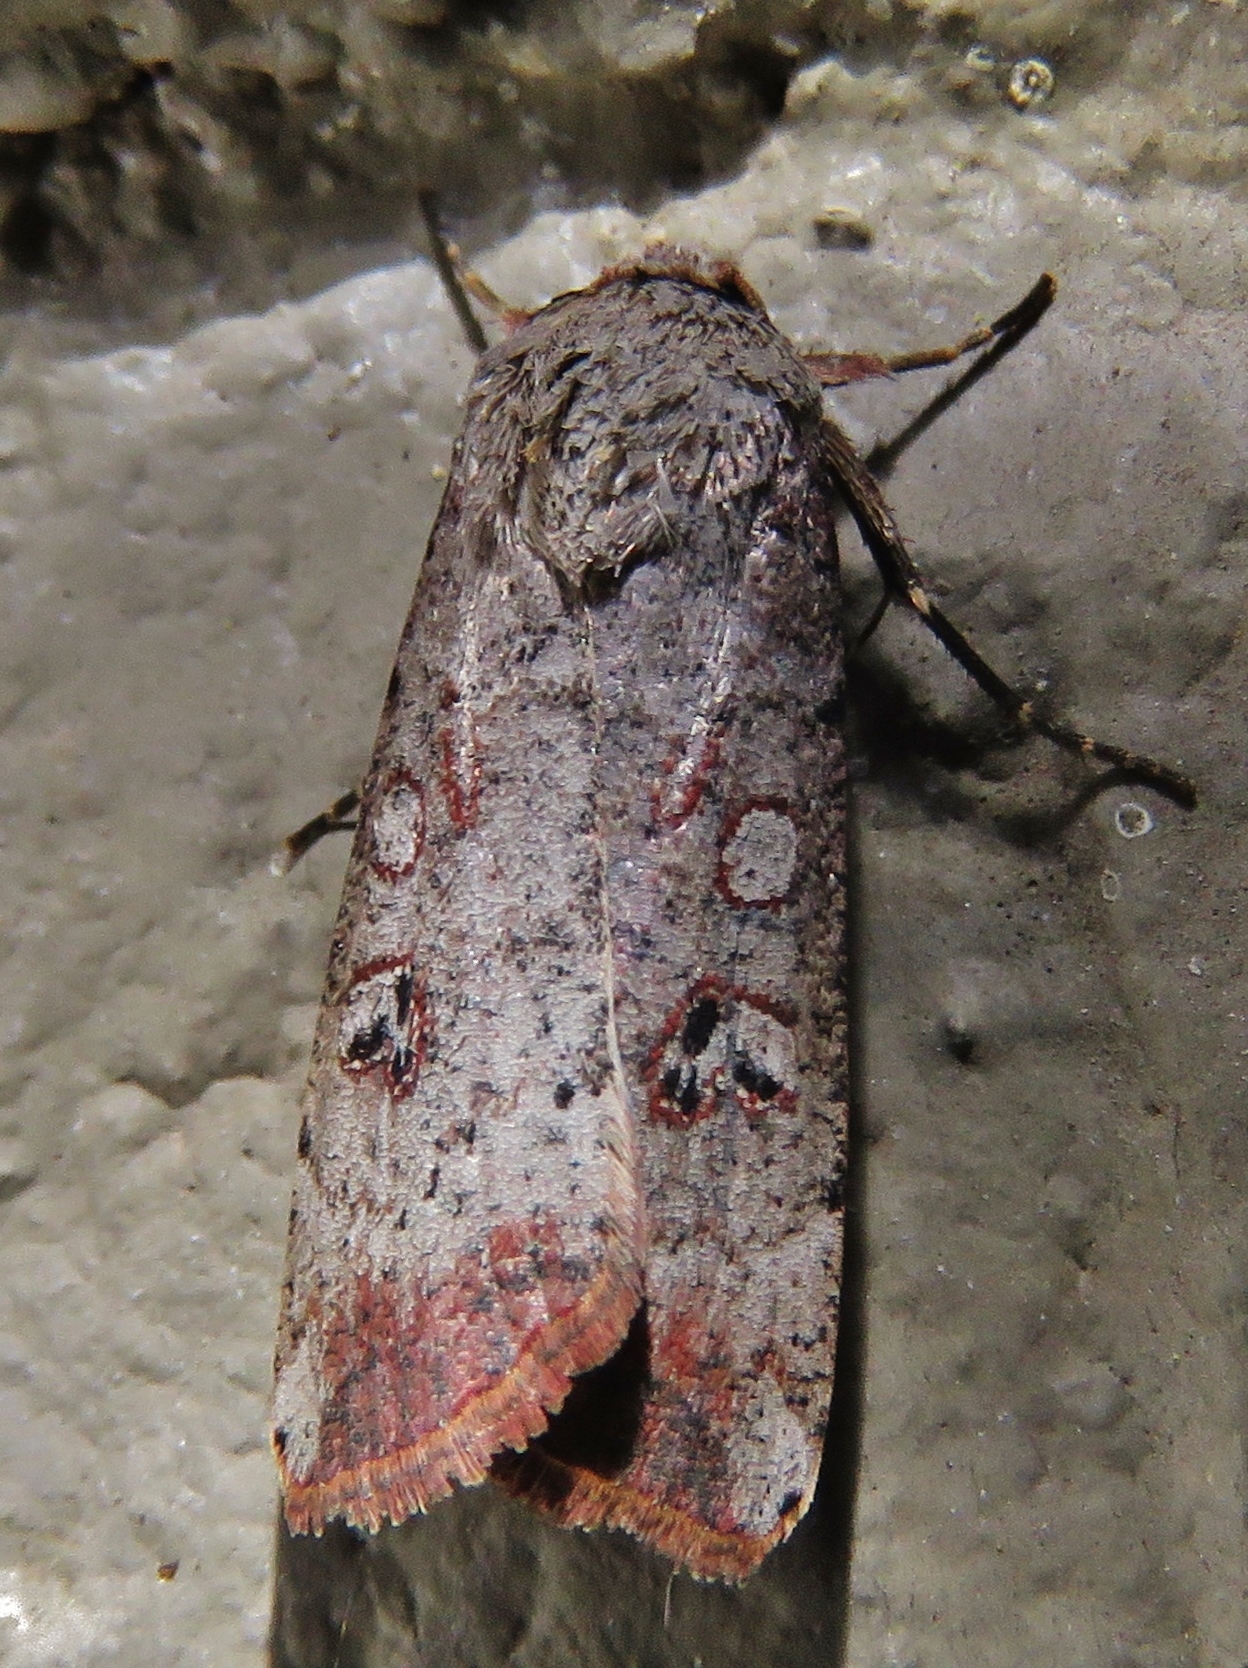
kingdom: Animalia
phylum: Arthropoda
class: Insecta
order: Lepidoptera
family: Noctuidae
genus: Anicla
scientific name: Anicla infecta
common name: Green cutworm
